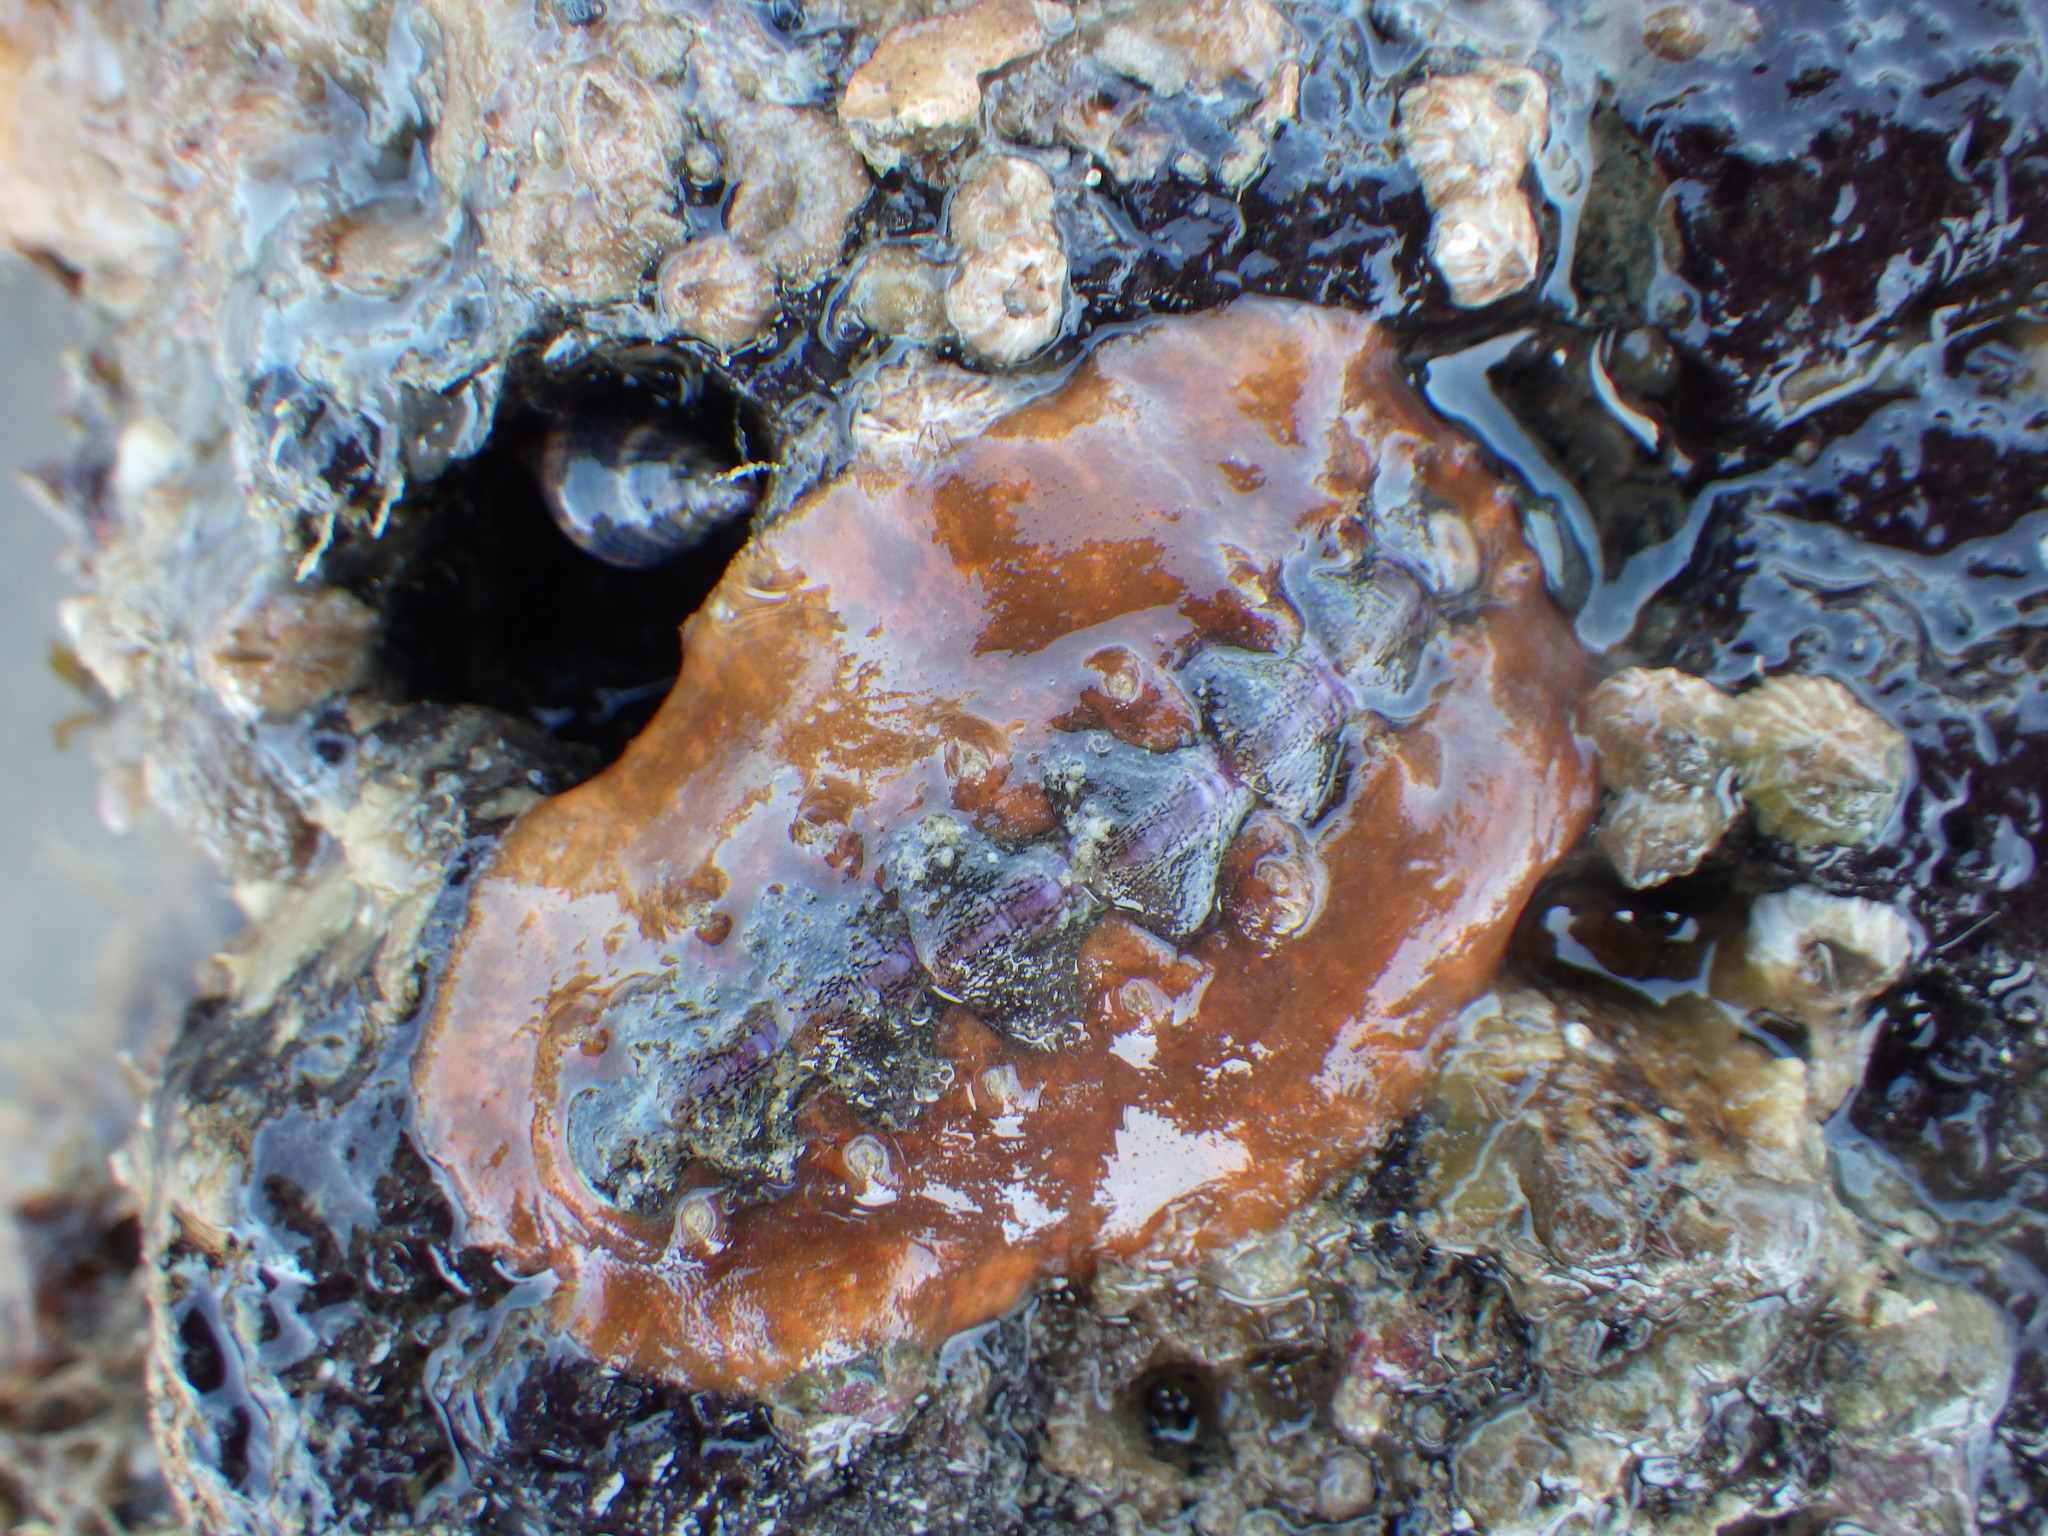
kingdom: Animalia
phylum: Mollusca
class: Polyplacophora
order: Chitonida
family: Acanthochitonidae
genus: Notoplax
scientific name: Notoplax violacea
